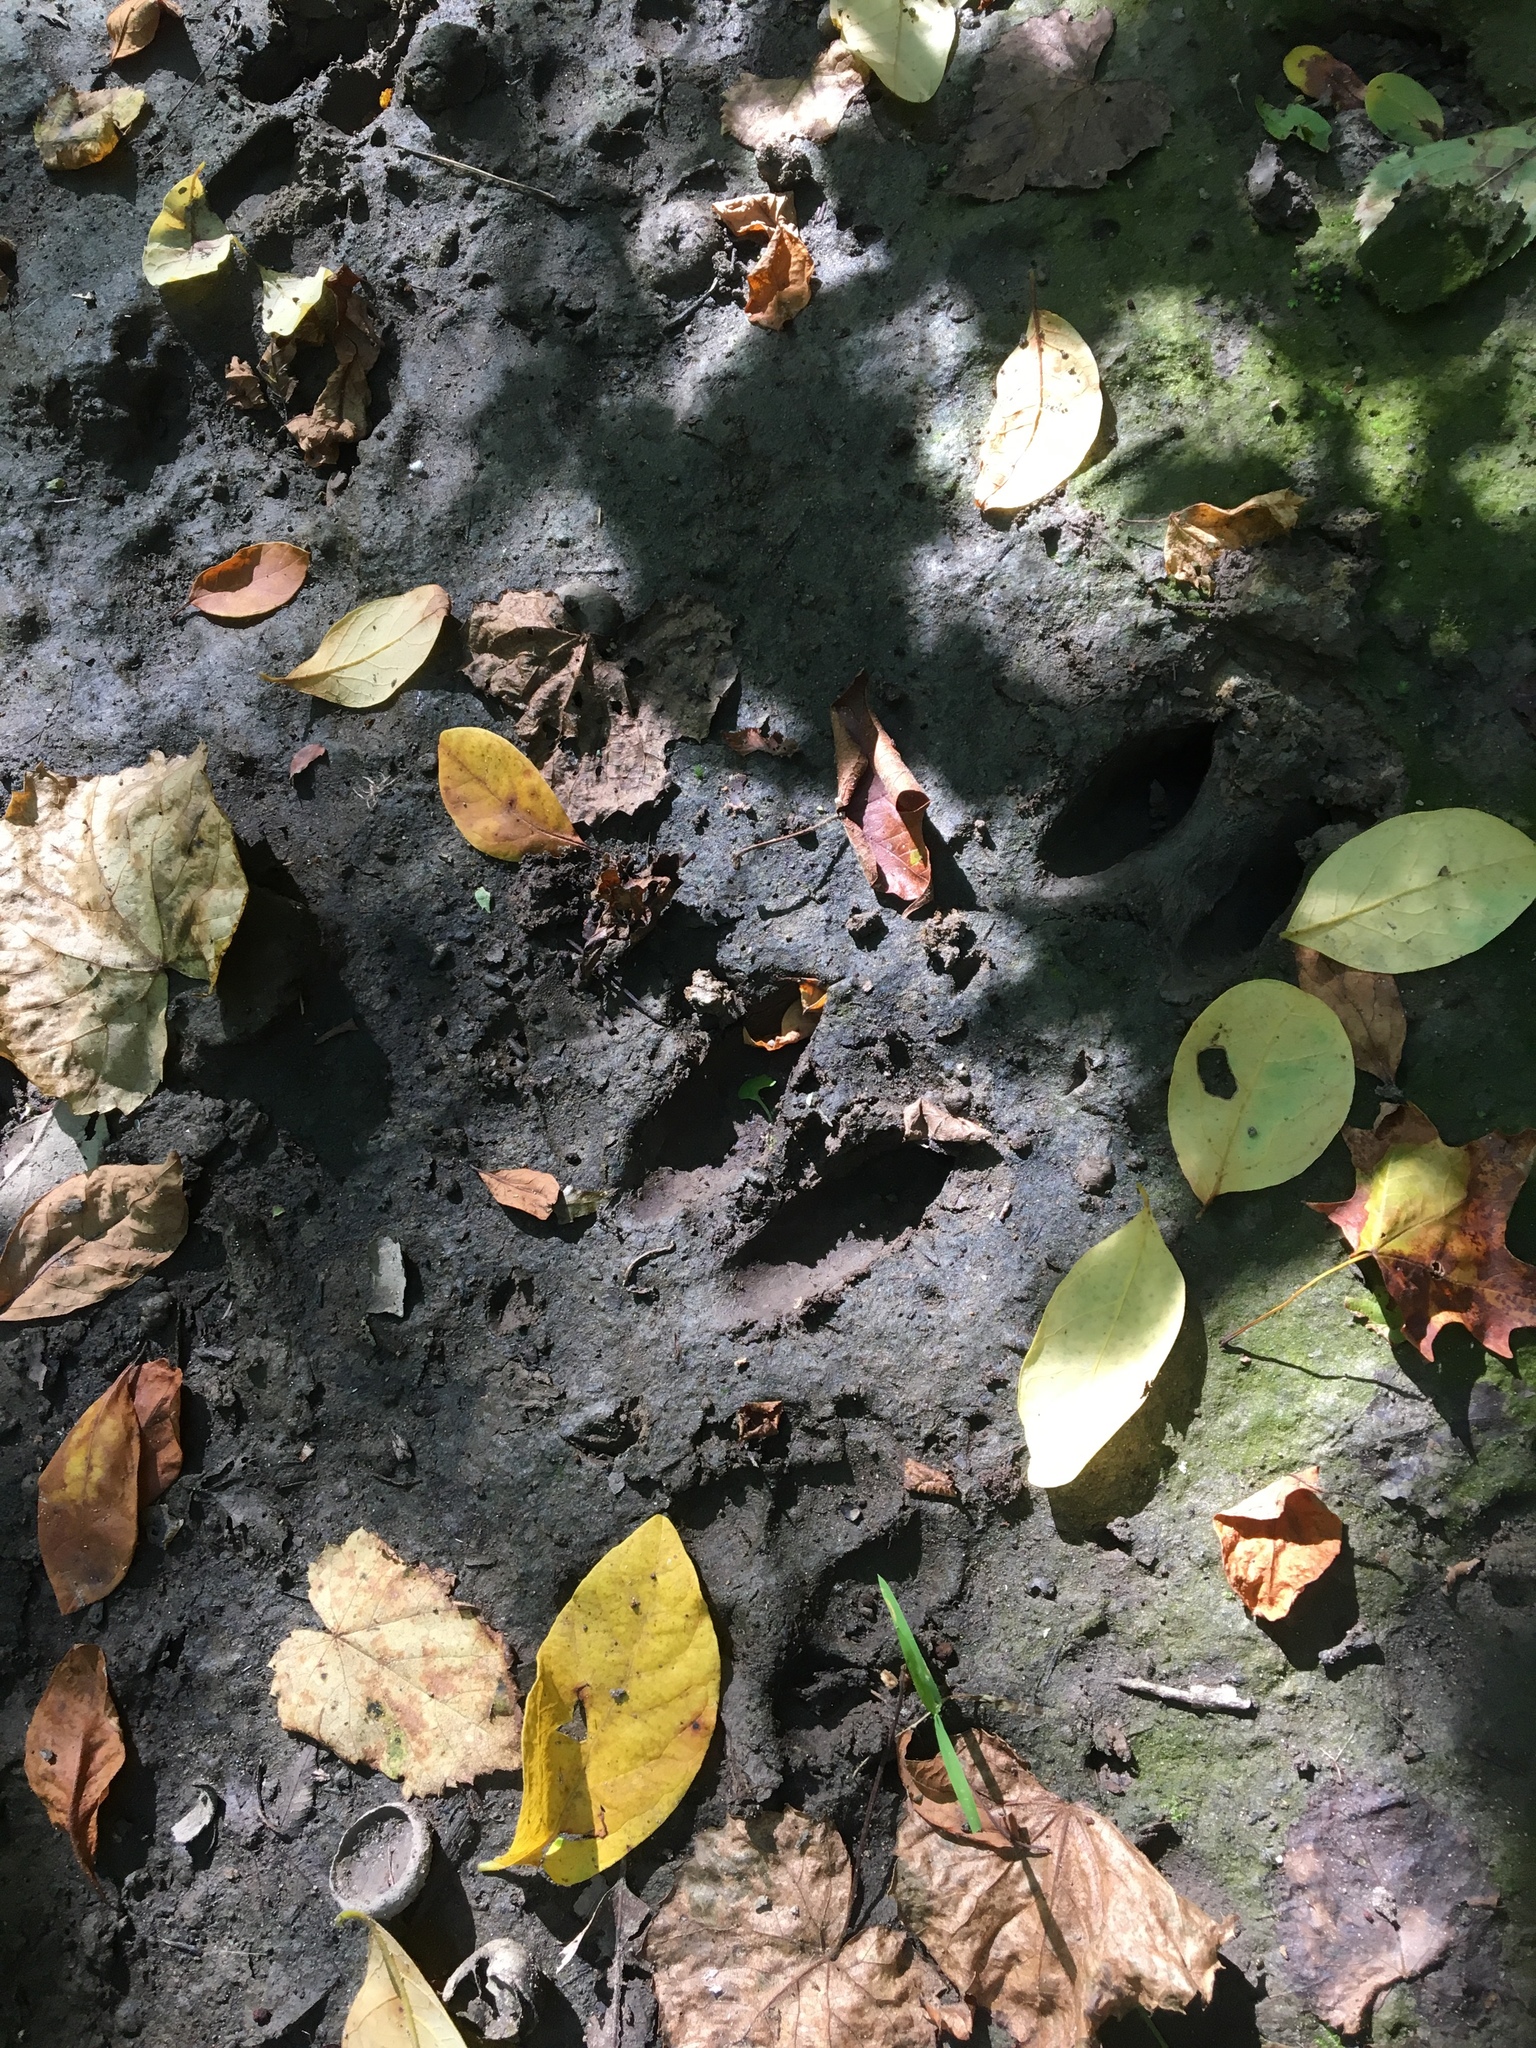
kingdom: Animalia
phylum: Chordata
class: Mammalia
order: Artiodactyla
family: Cervidae
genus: Odocoileus
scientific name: Odocoileus virginianus
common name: White-tailed deer
